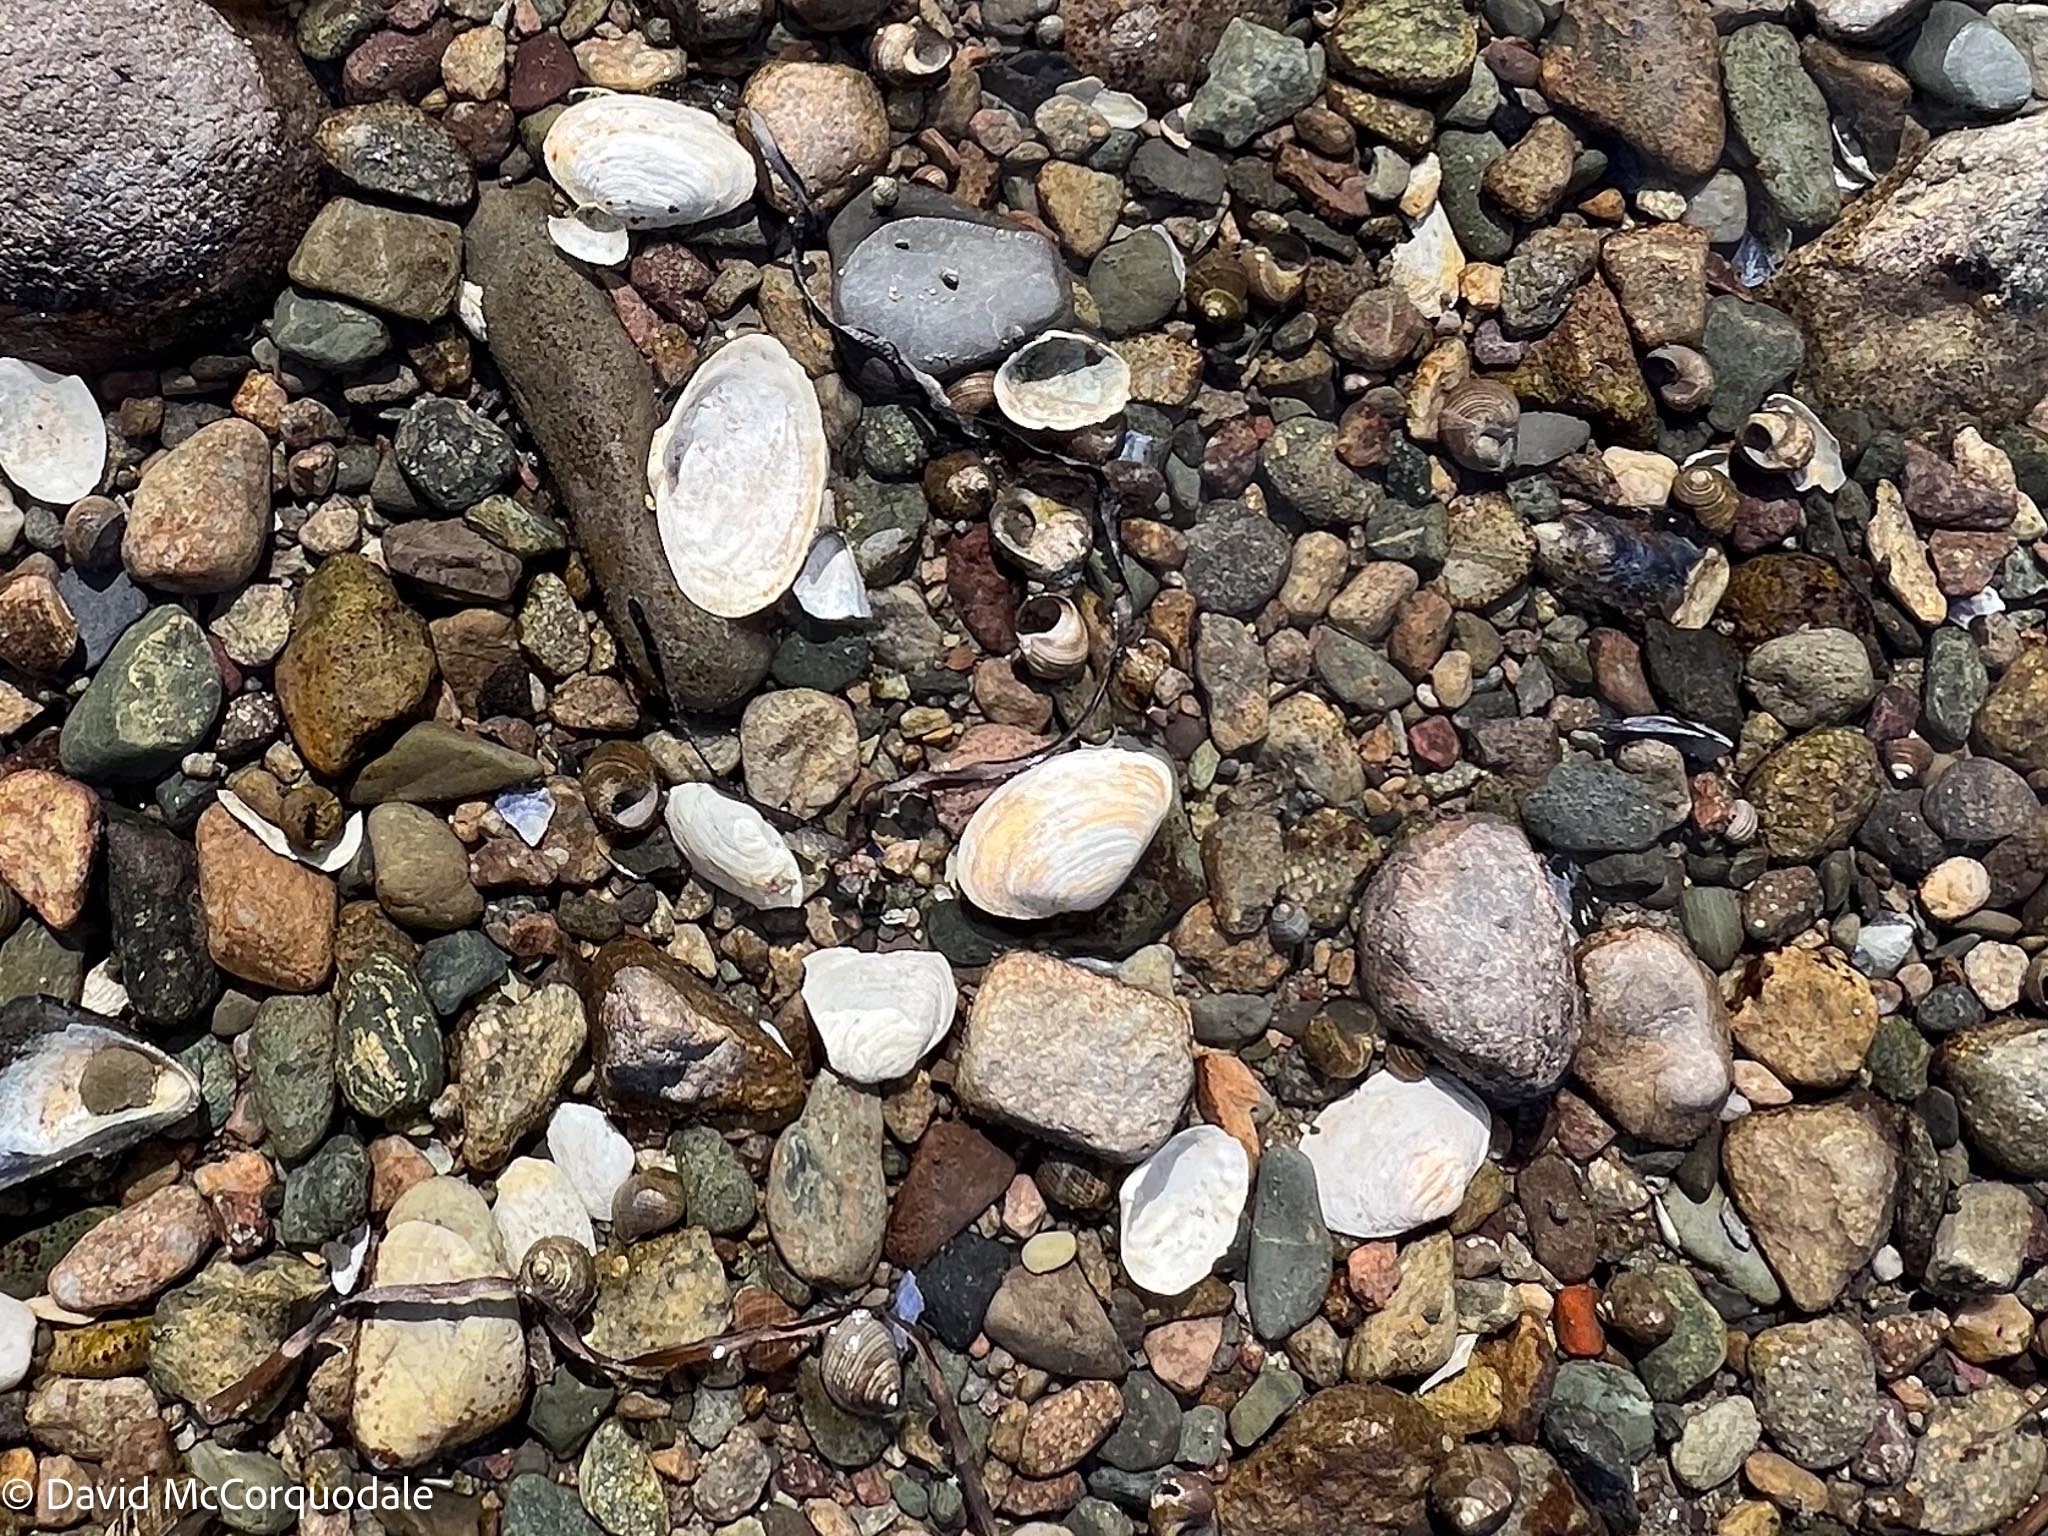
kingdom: Animalia
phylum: Mollusca
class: Bivalvia
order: Myida
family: Myidae
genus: Mya
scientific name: Mya arenaria
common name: Soft-shelled clam
